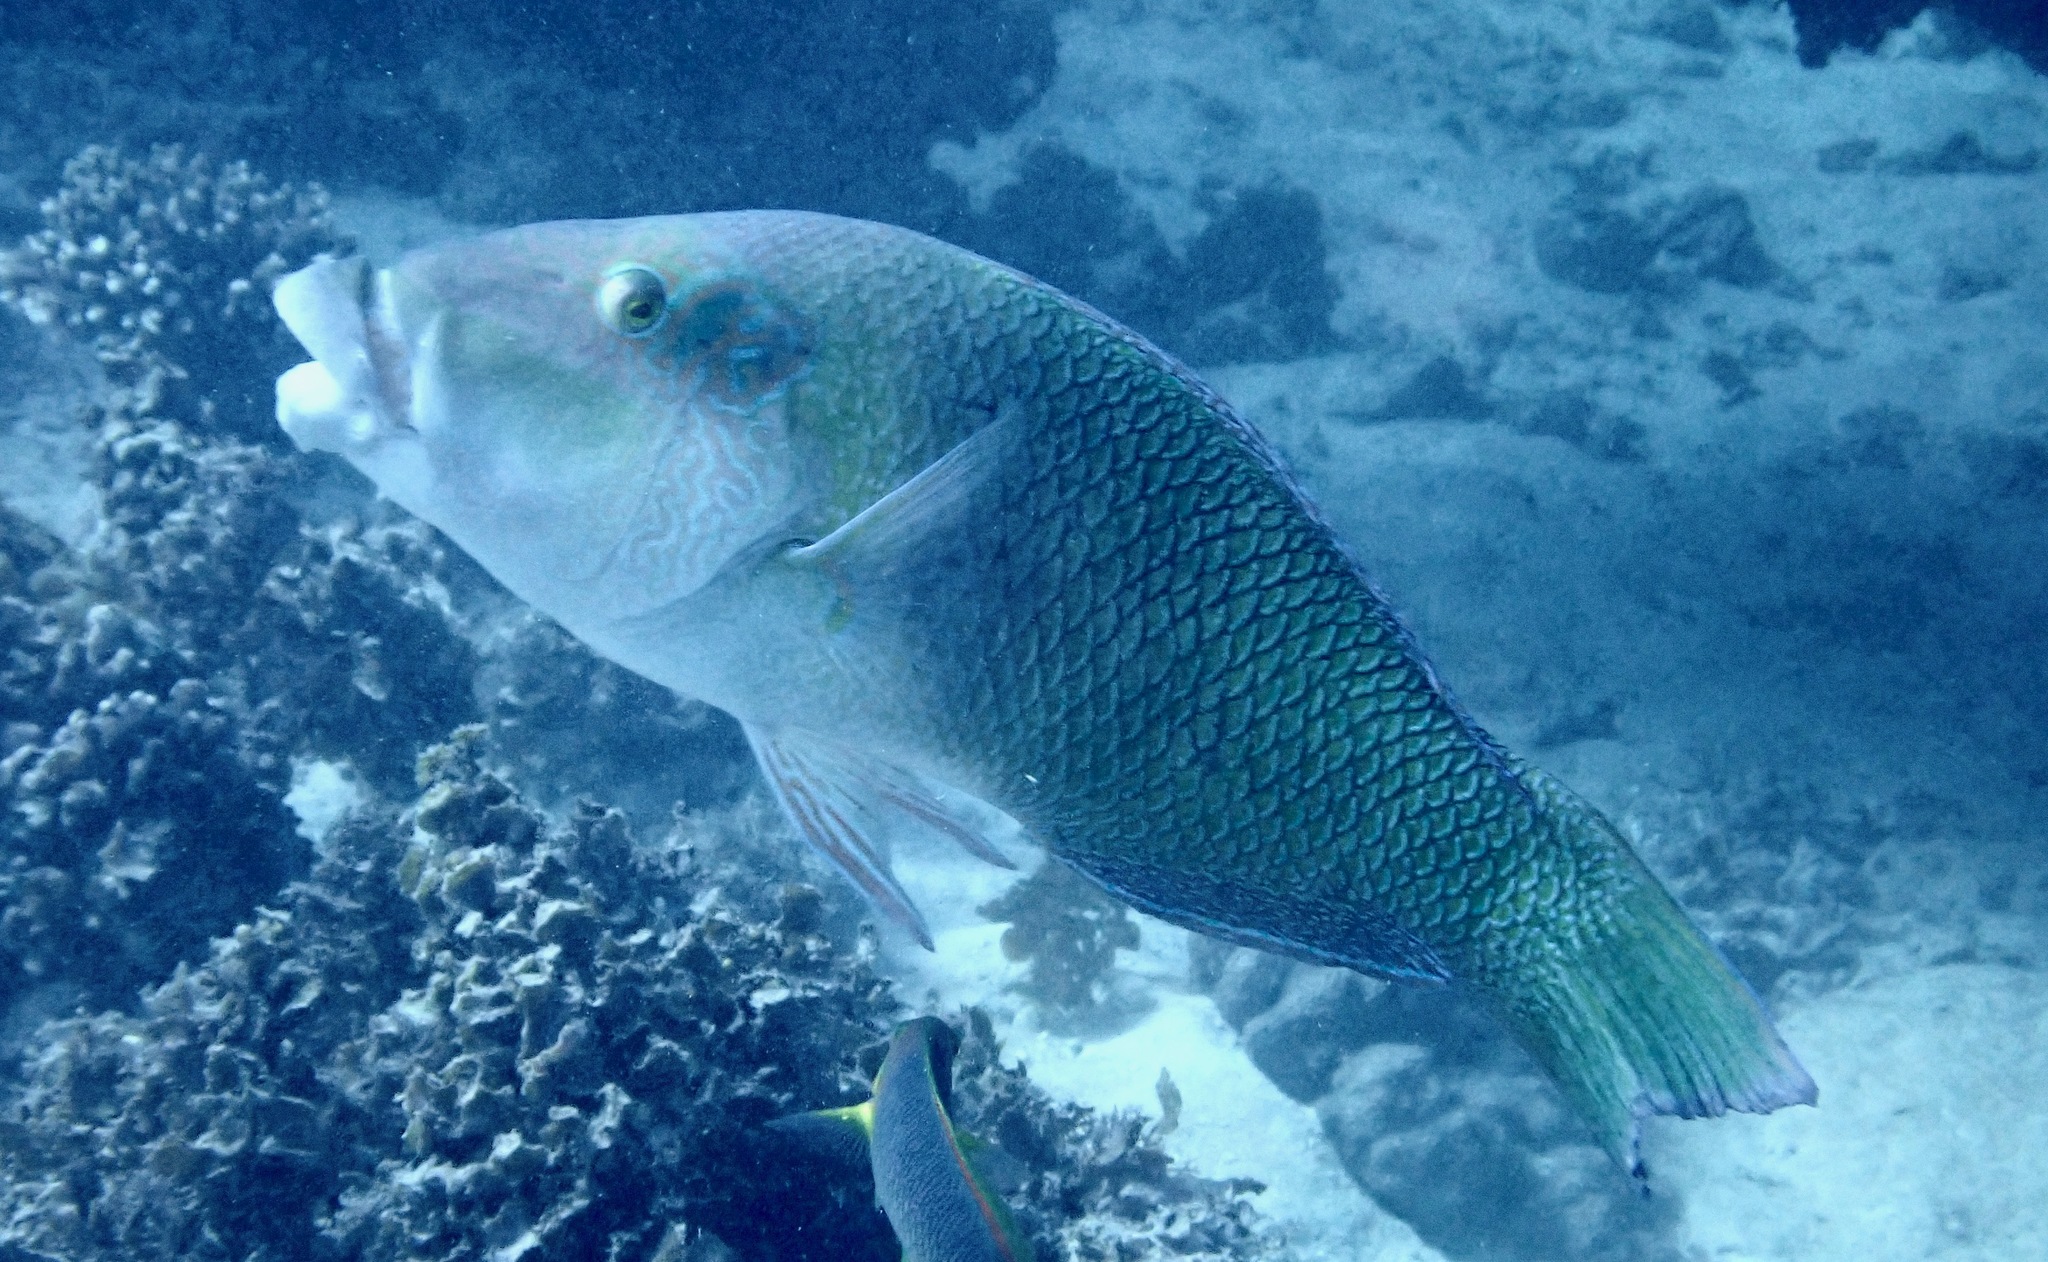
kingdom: Animalia
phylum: Chordata
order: Perciformes
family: Labridae
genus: Hemigymnus
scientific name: Hemigymnus melapterus
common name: Blackeye thicklip
